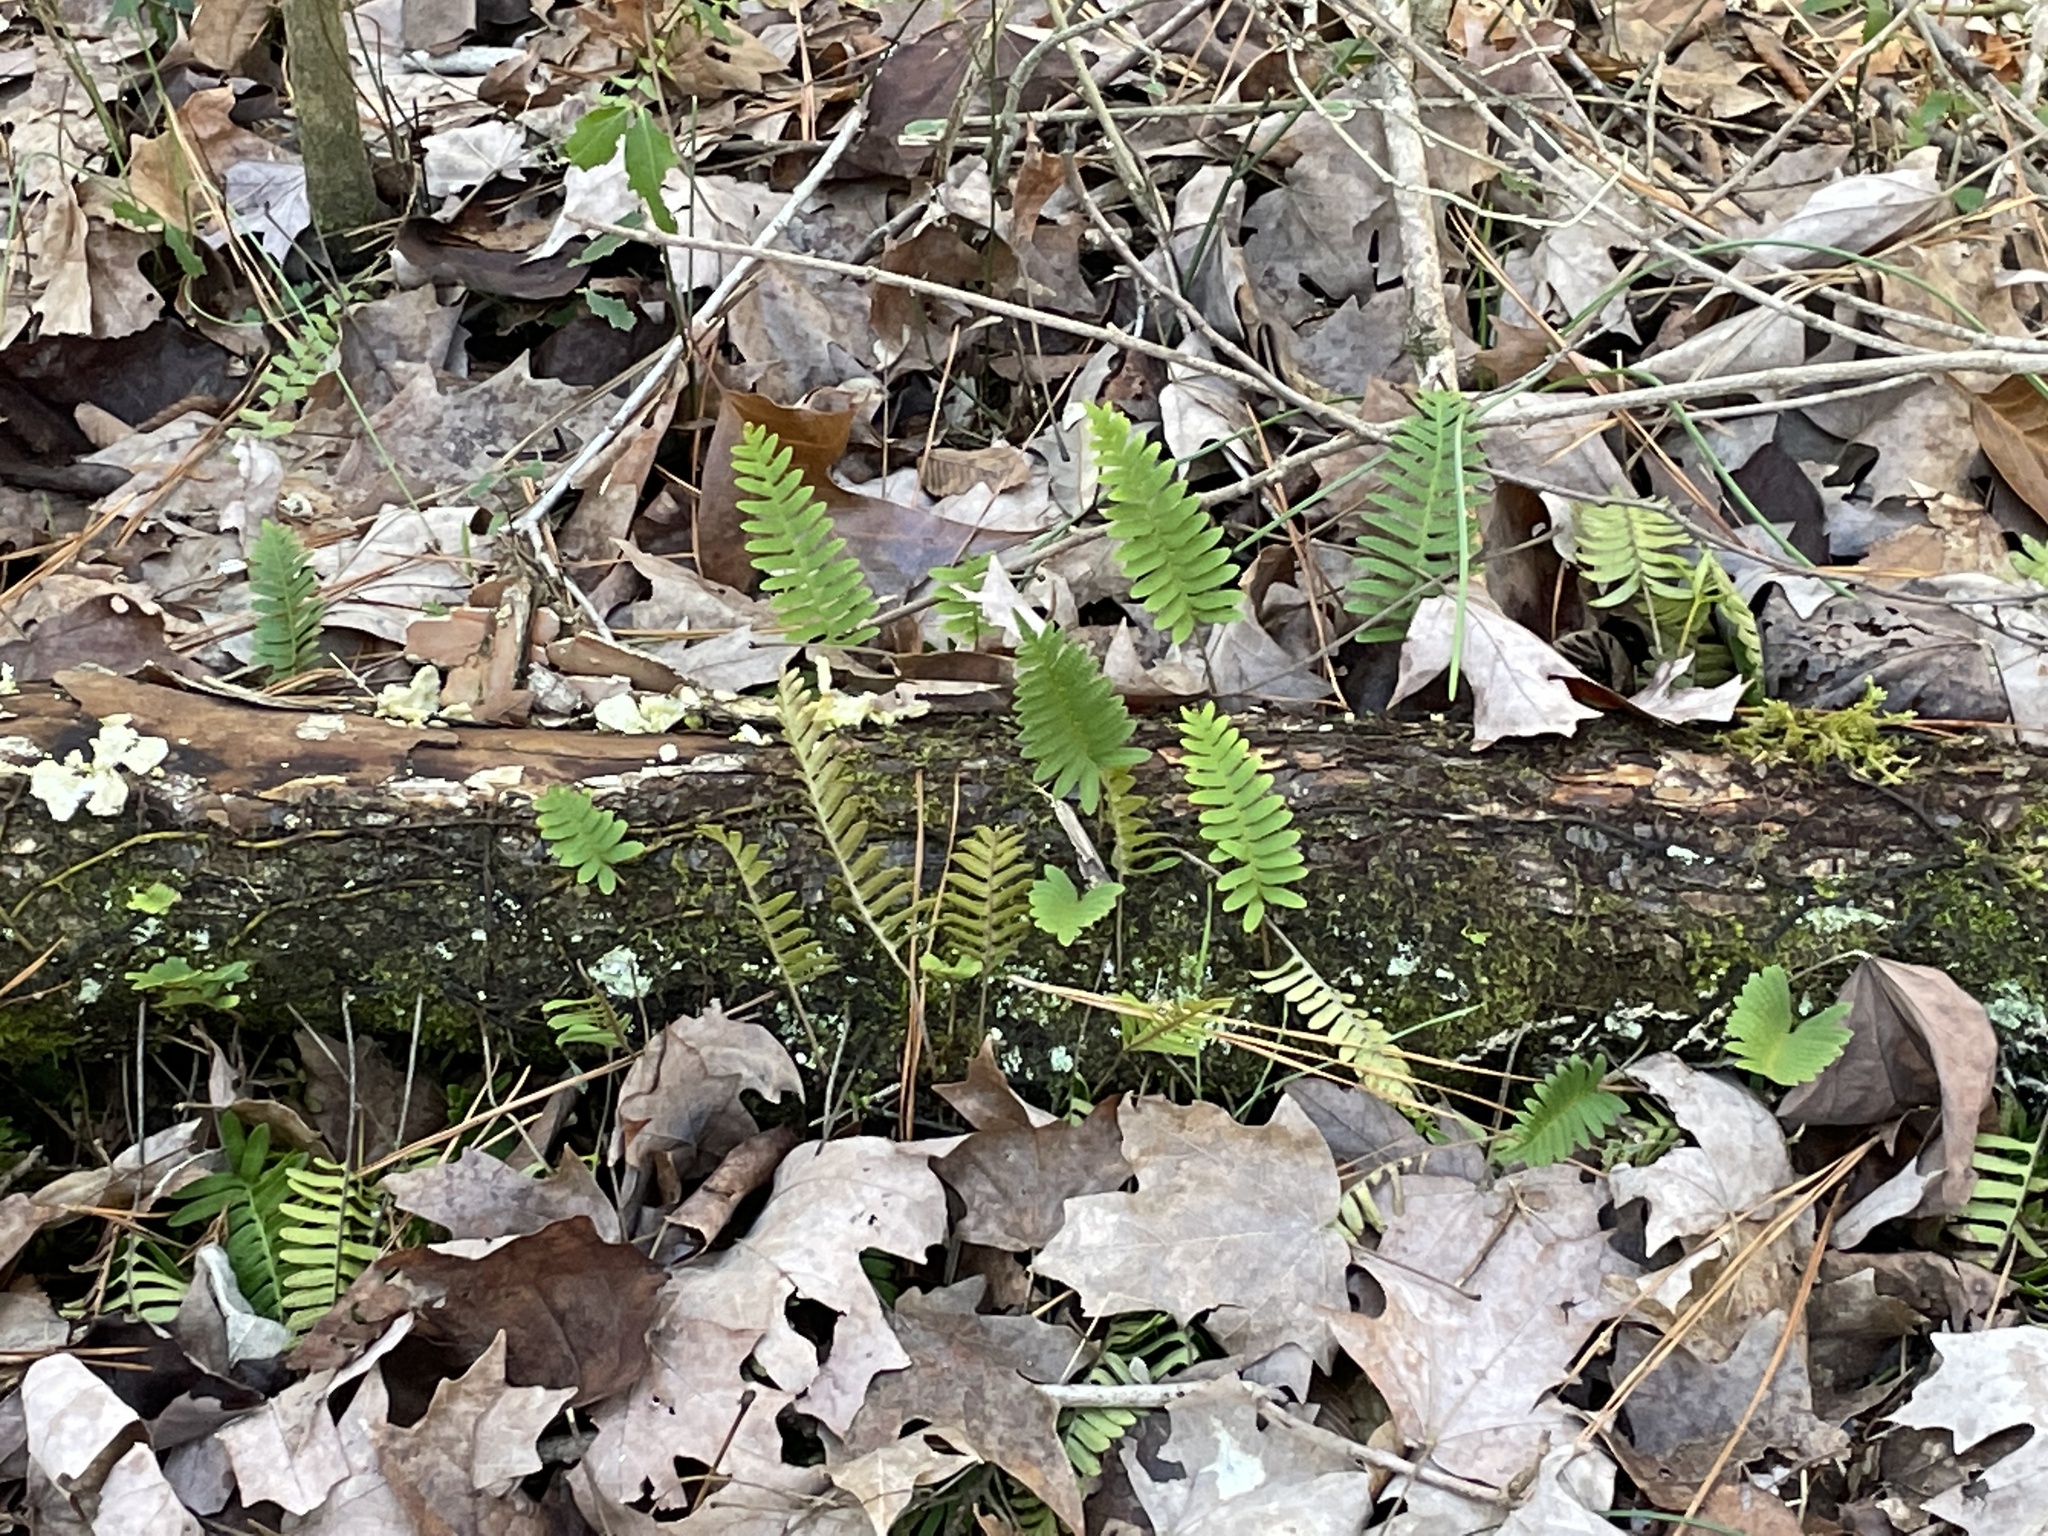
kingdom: Plantae
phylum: Tracheophyta
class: Polypodiopsida
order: Polypodiales
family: Polypodiaceae
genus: Pleopeltis
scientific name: Pleopeltis michauxiana
